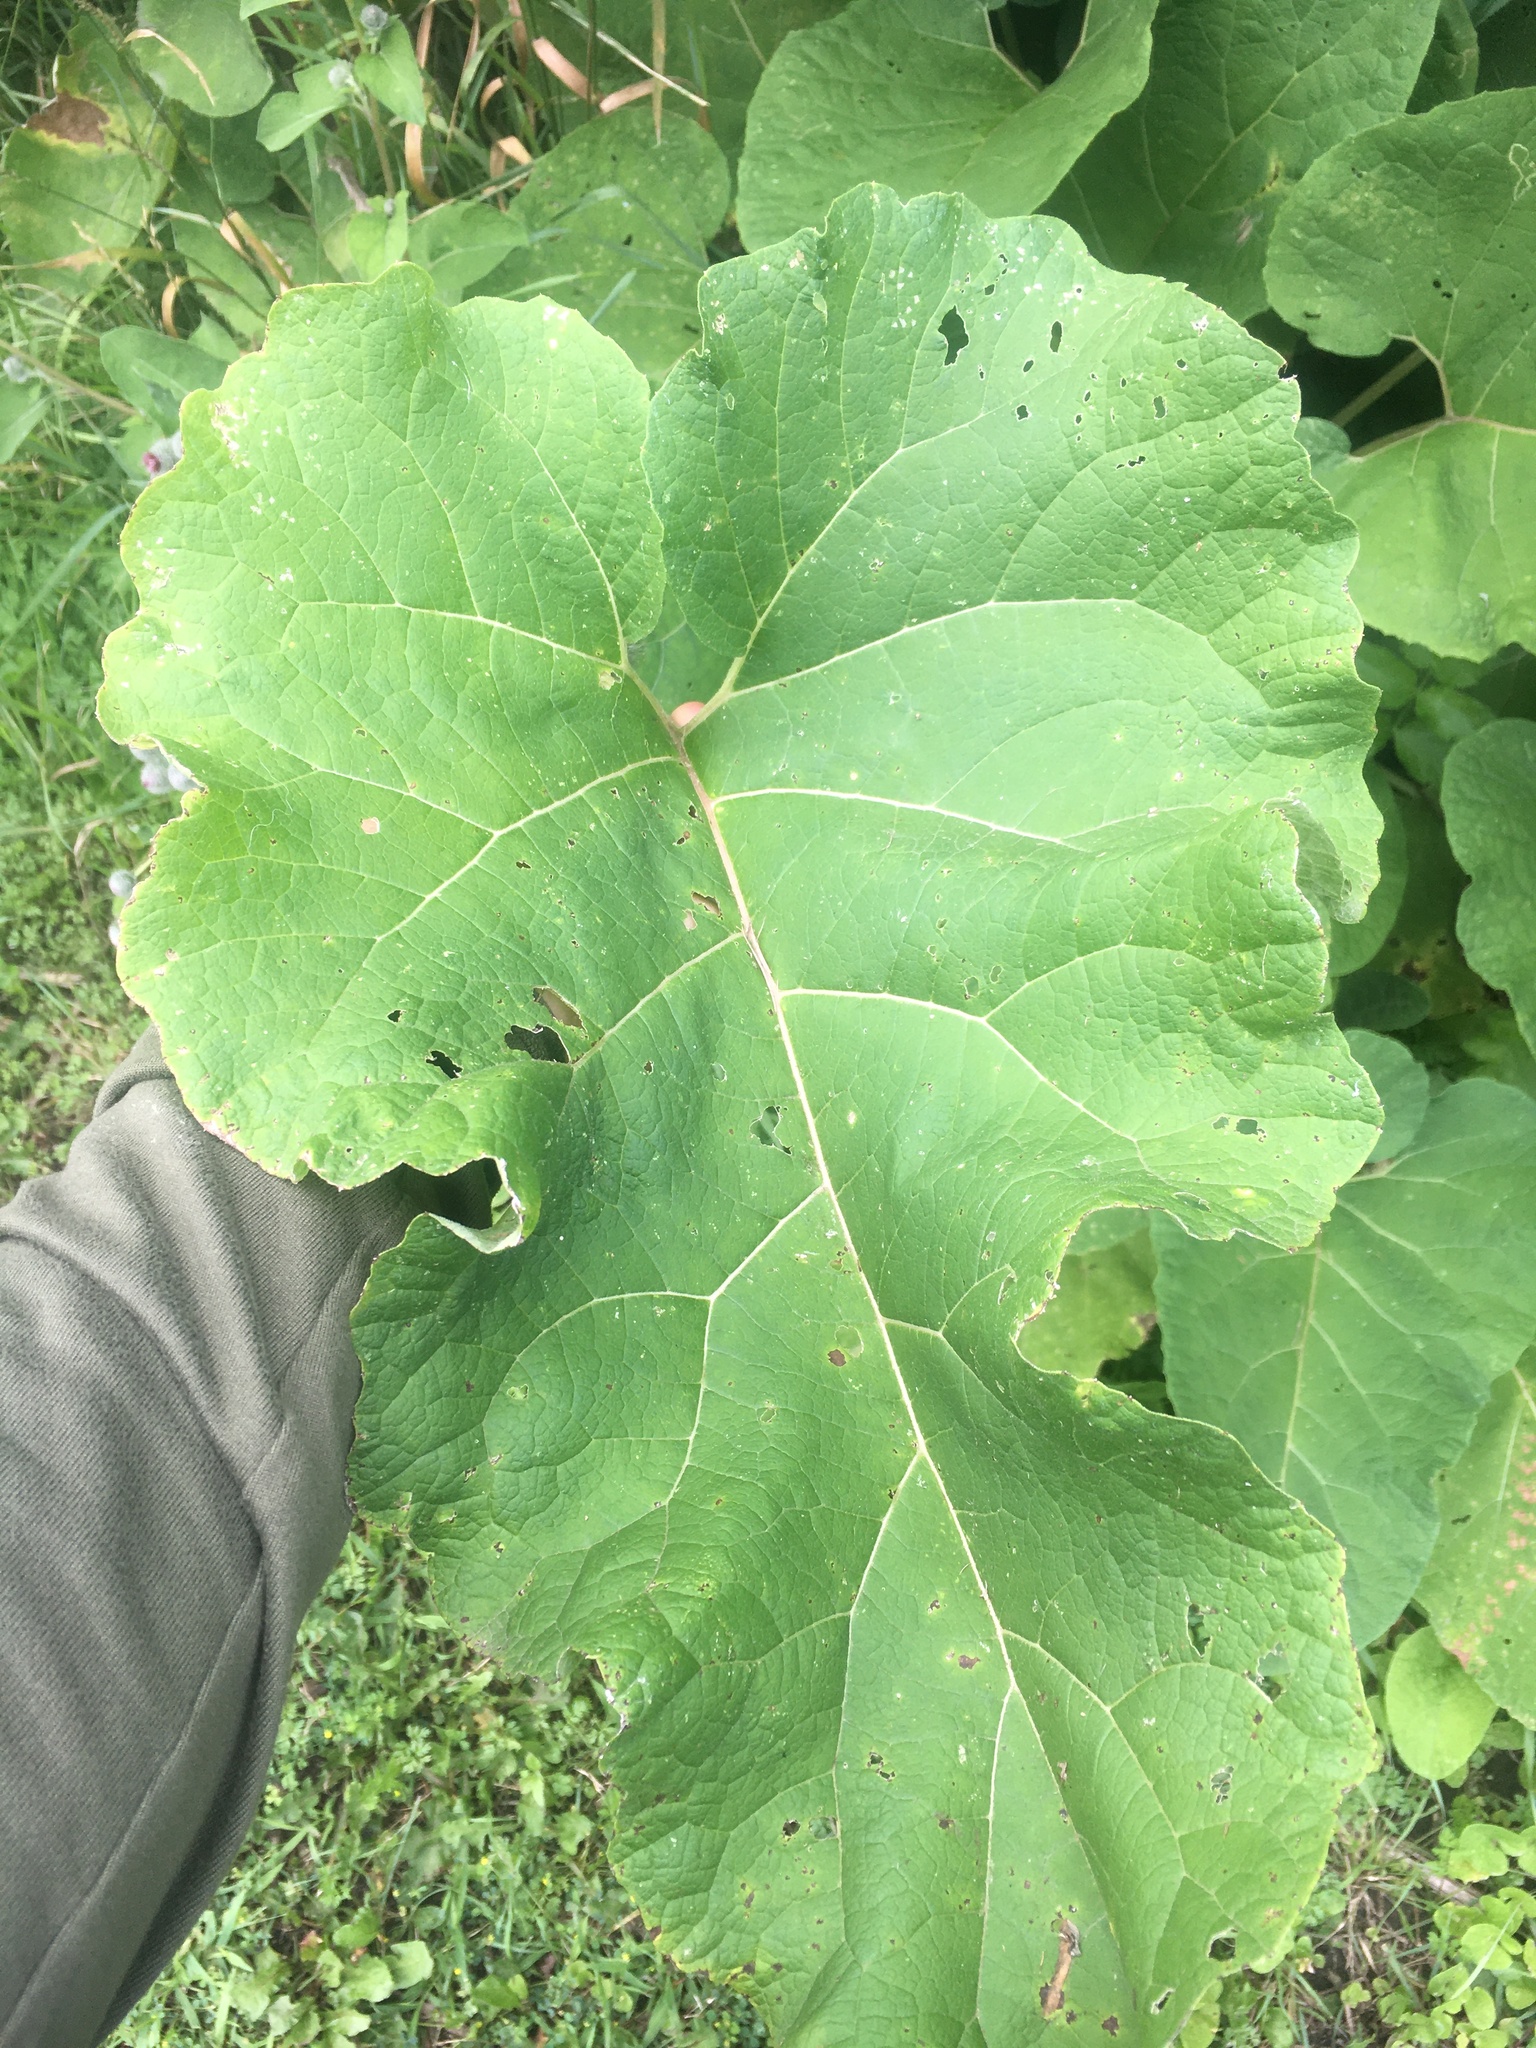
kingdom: Plantae
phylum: Tracheophyta
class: Magnoliopsida
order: Asterales
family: Asteraceae
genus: Arctium
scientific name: Arctium minus
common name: Lesser burdock
